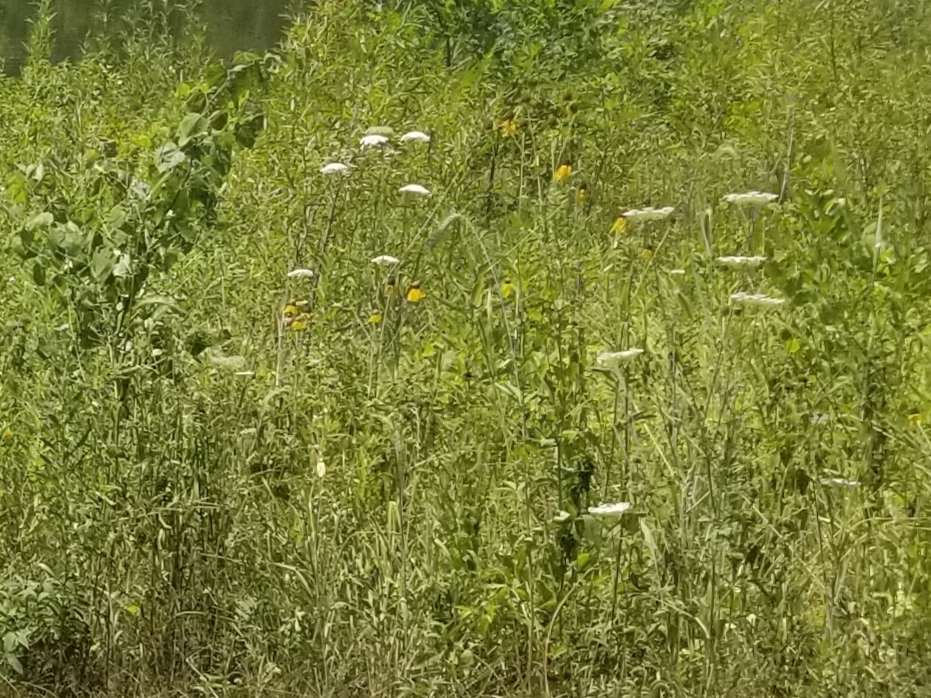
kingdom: Plantae
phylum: Tracheophyta
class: Magnoliopsida
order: Apiales
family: Apiaceae
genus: Daucus
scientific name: Daucus carota
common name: Wild carrot
